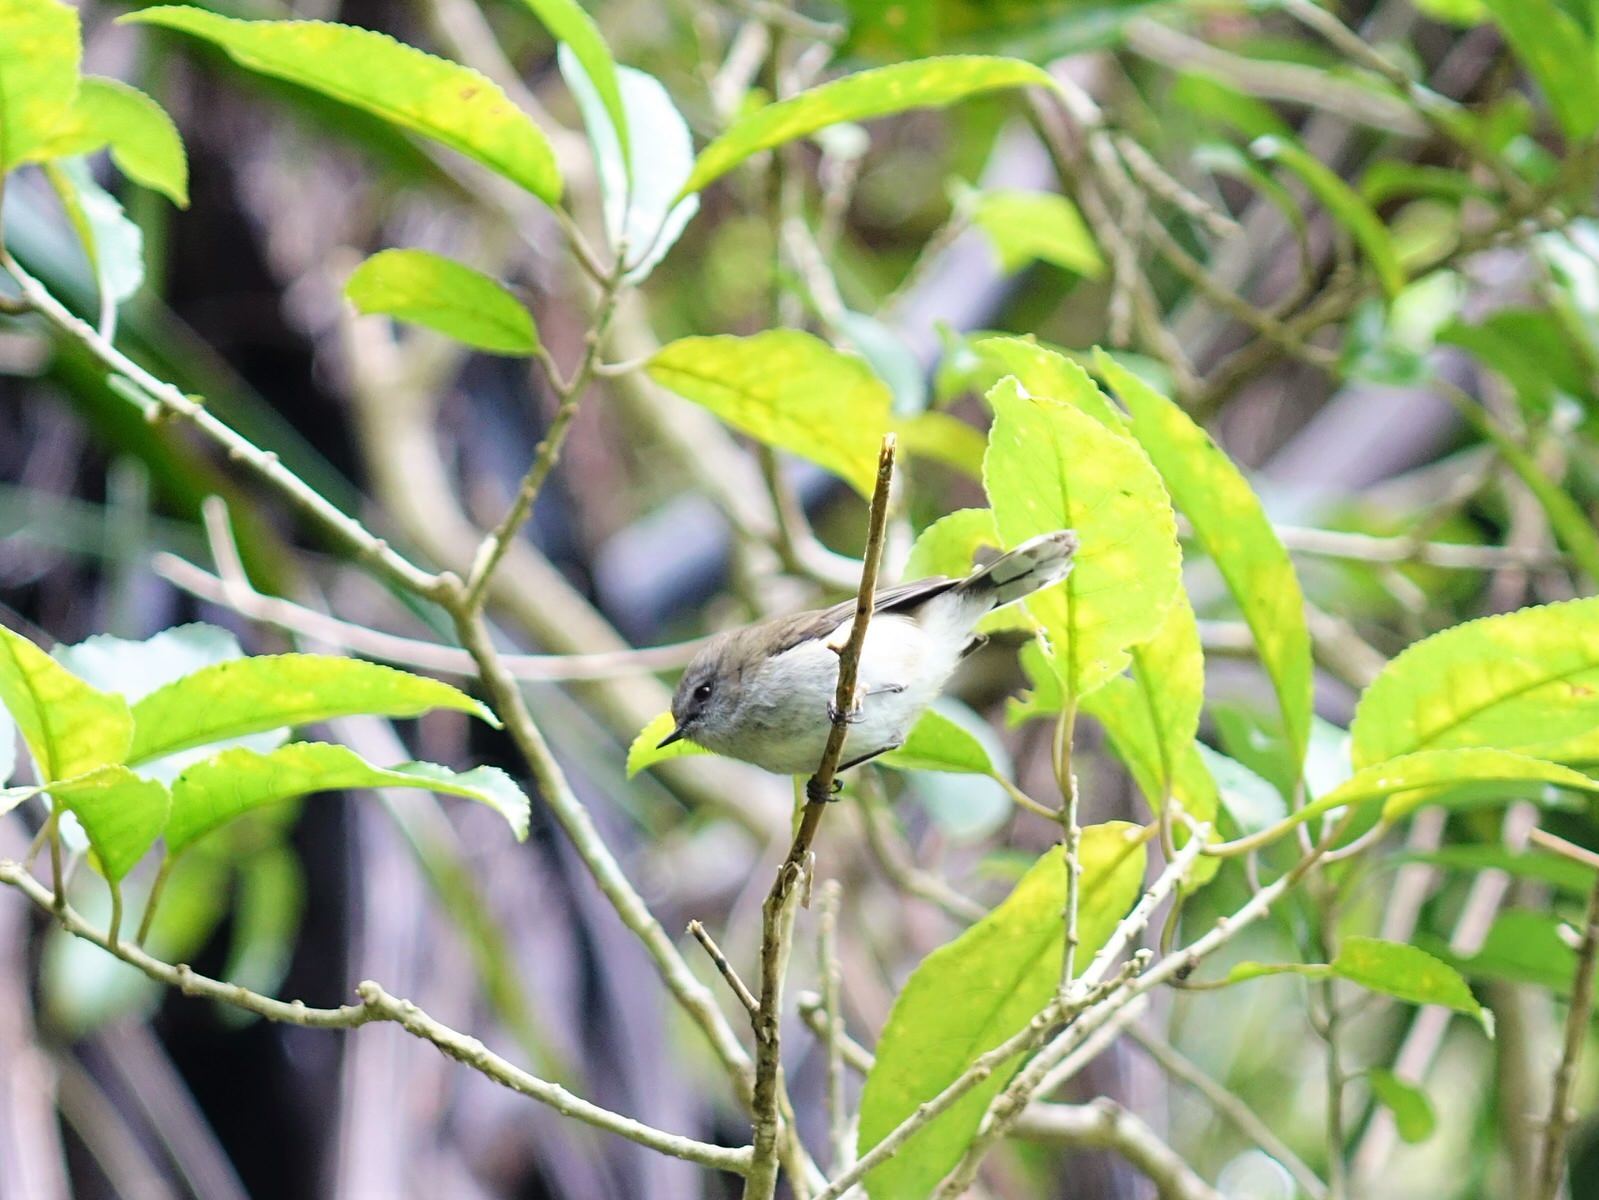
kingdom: Animalia
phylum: Chordata
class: Aves
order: Passeriformes
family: Acanthizidae
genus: Gerygone
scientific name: Gerygone igata
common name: Grey gerygone
